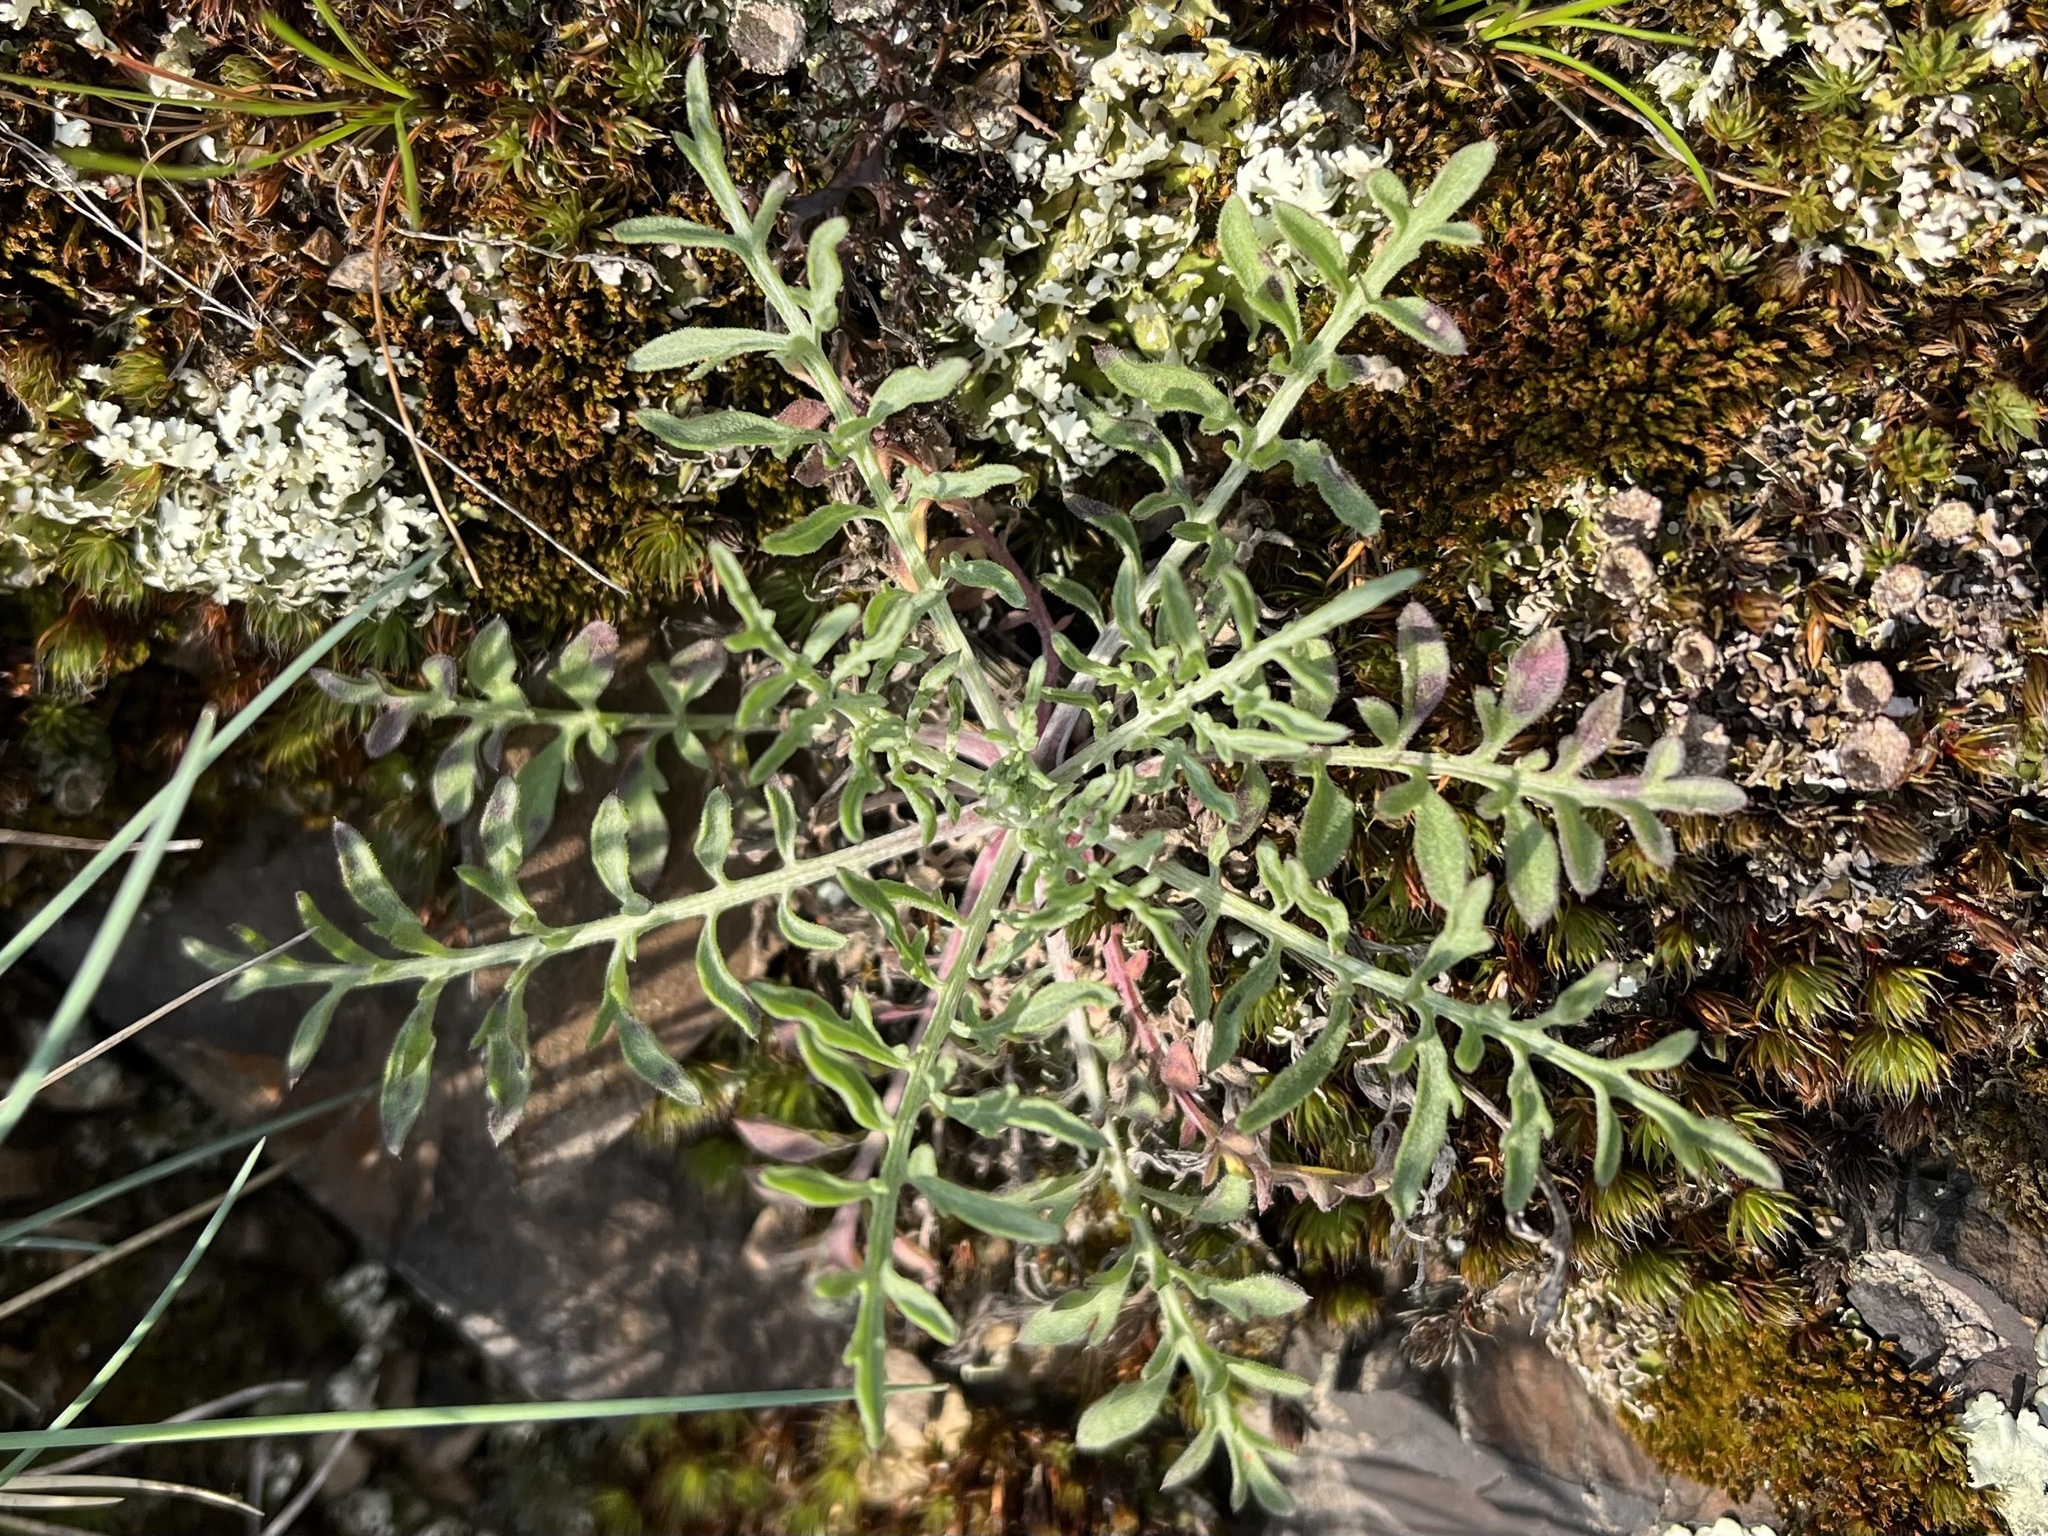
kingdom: Plantae
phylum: Tracheophyta
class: Magnoliopsida
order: Asterales
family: Asteraceae
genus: Centaurea
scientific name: Centaurea stoebe
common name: Spotted knapweed
